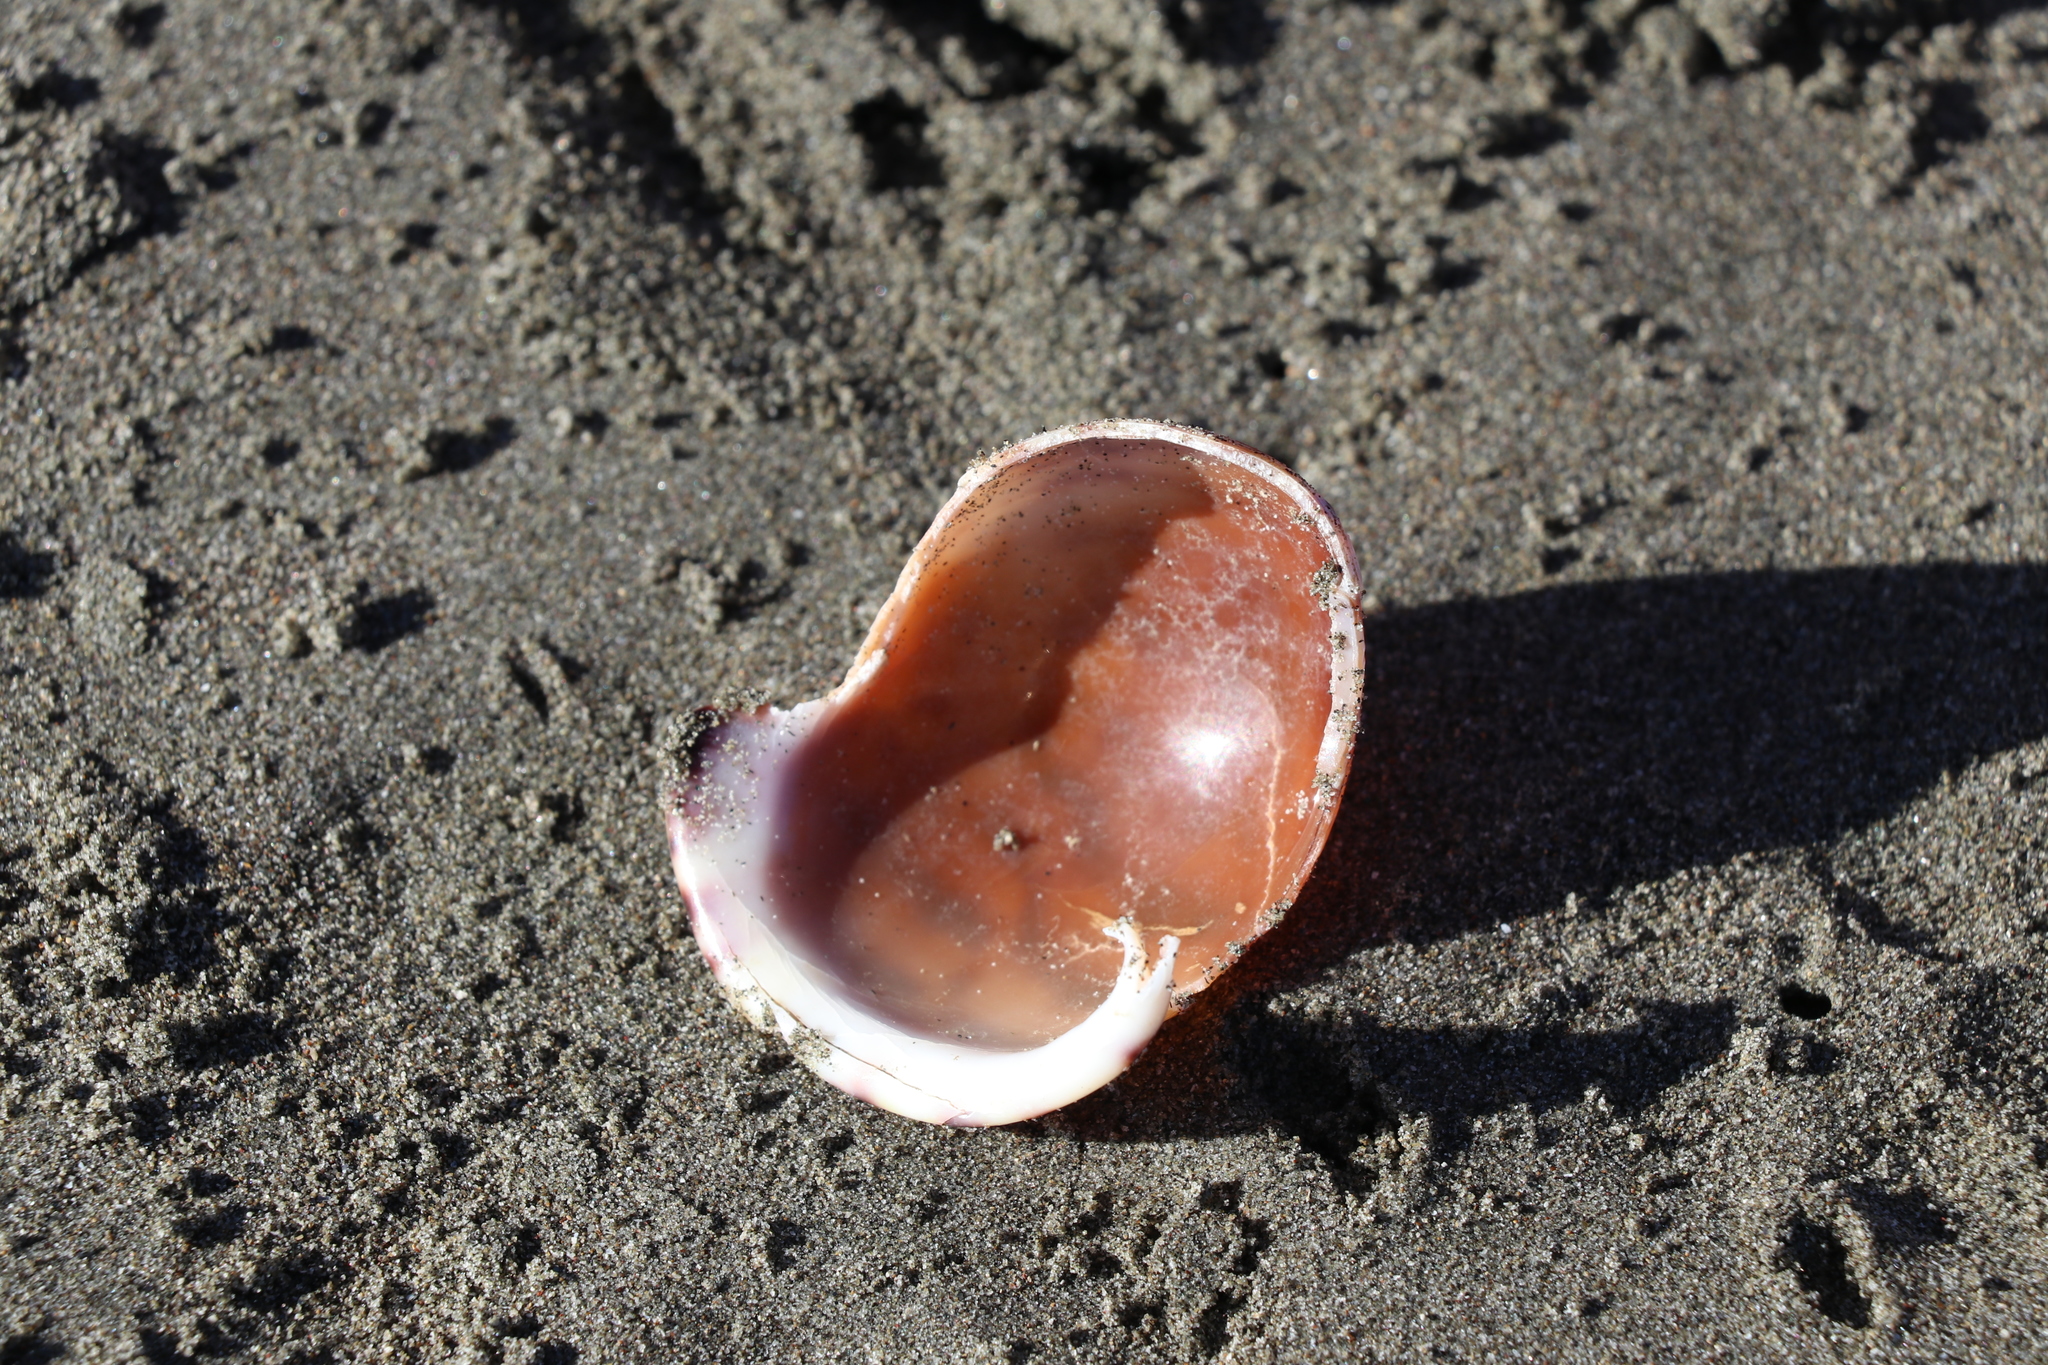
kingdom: Animalia
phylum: Mollusca
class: Gastropoda
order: Littorinimorpha
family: Cassidae
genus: Semicassis
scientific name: Semicassis pyrum
